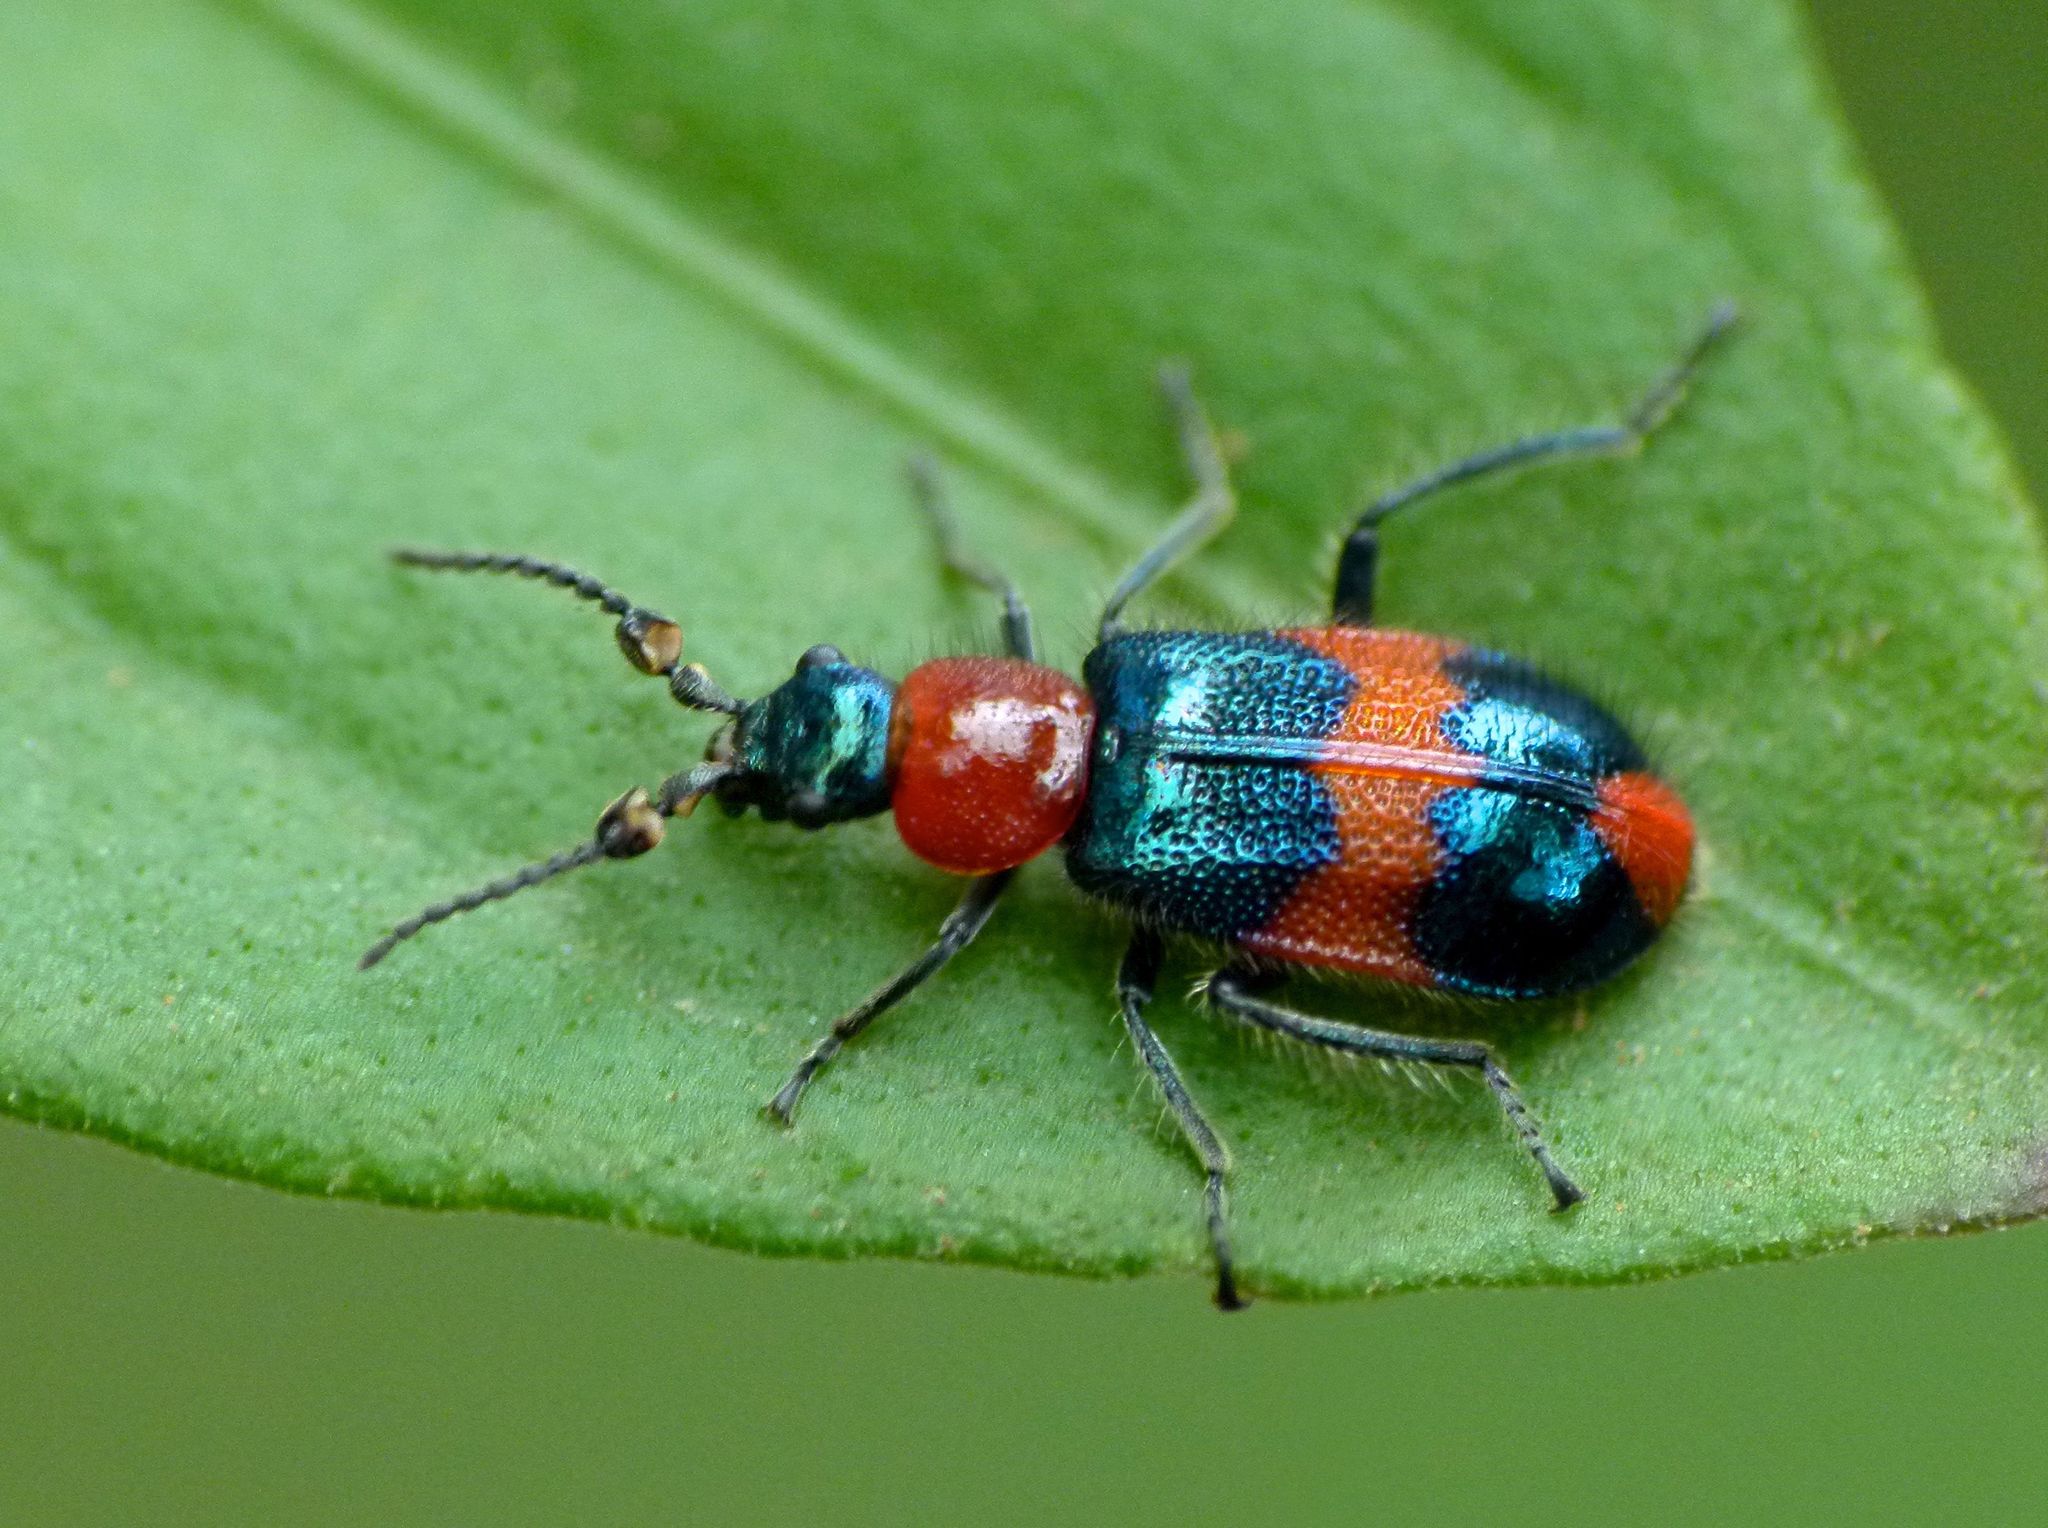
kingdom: Animalia
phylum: Arthropoda
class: Insecta
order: Coleoptera
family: Melyridae
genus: Dicranolaius
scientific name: Dicranolaius bellulus
